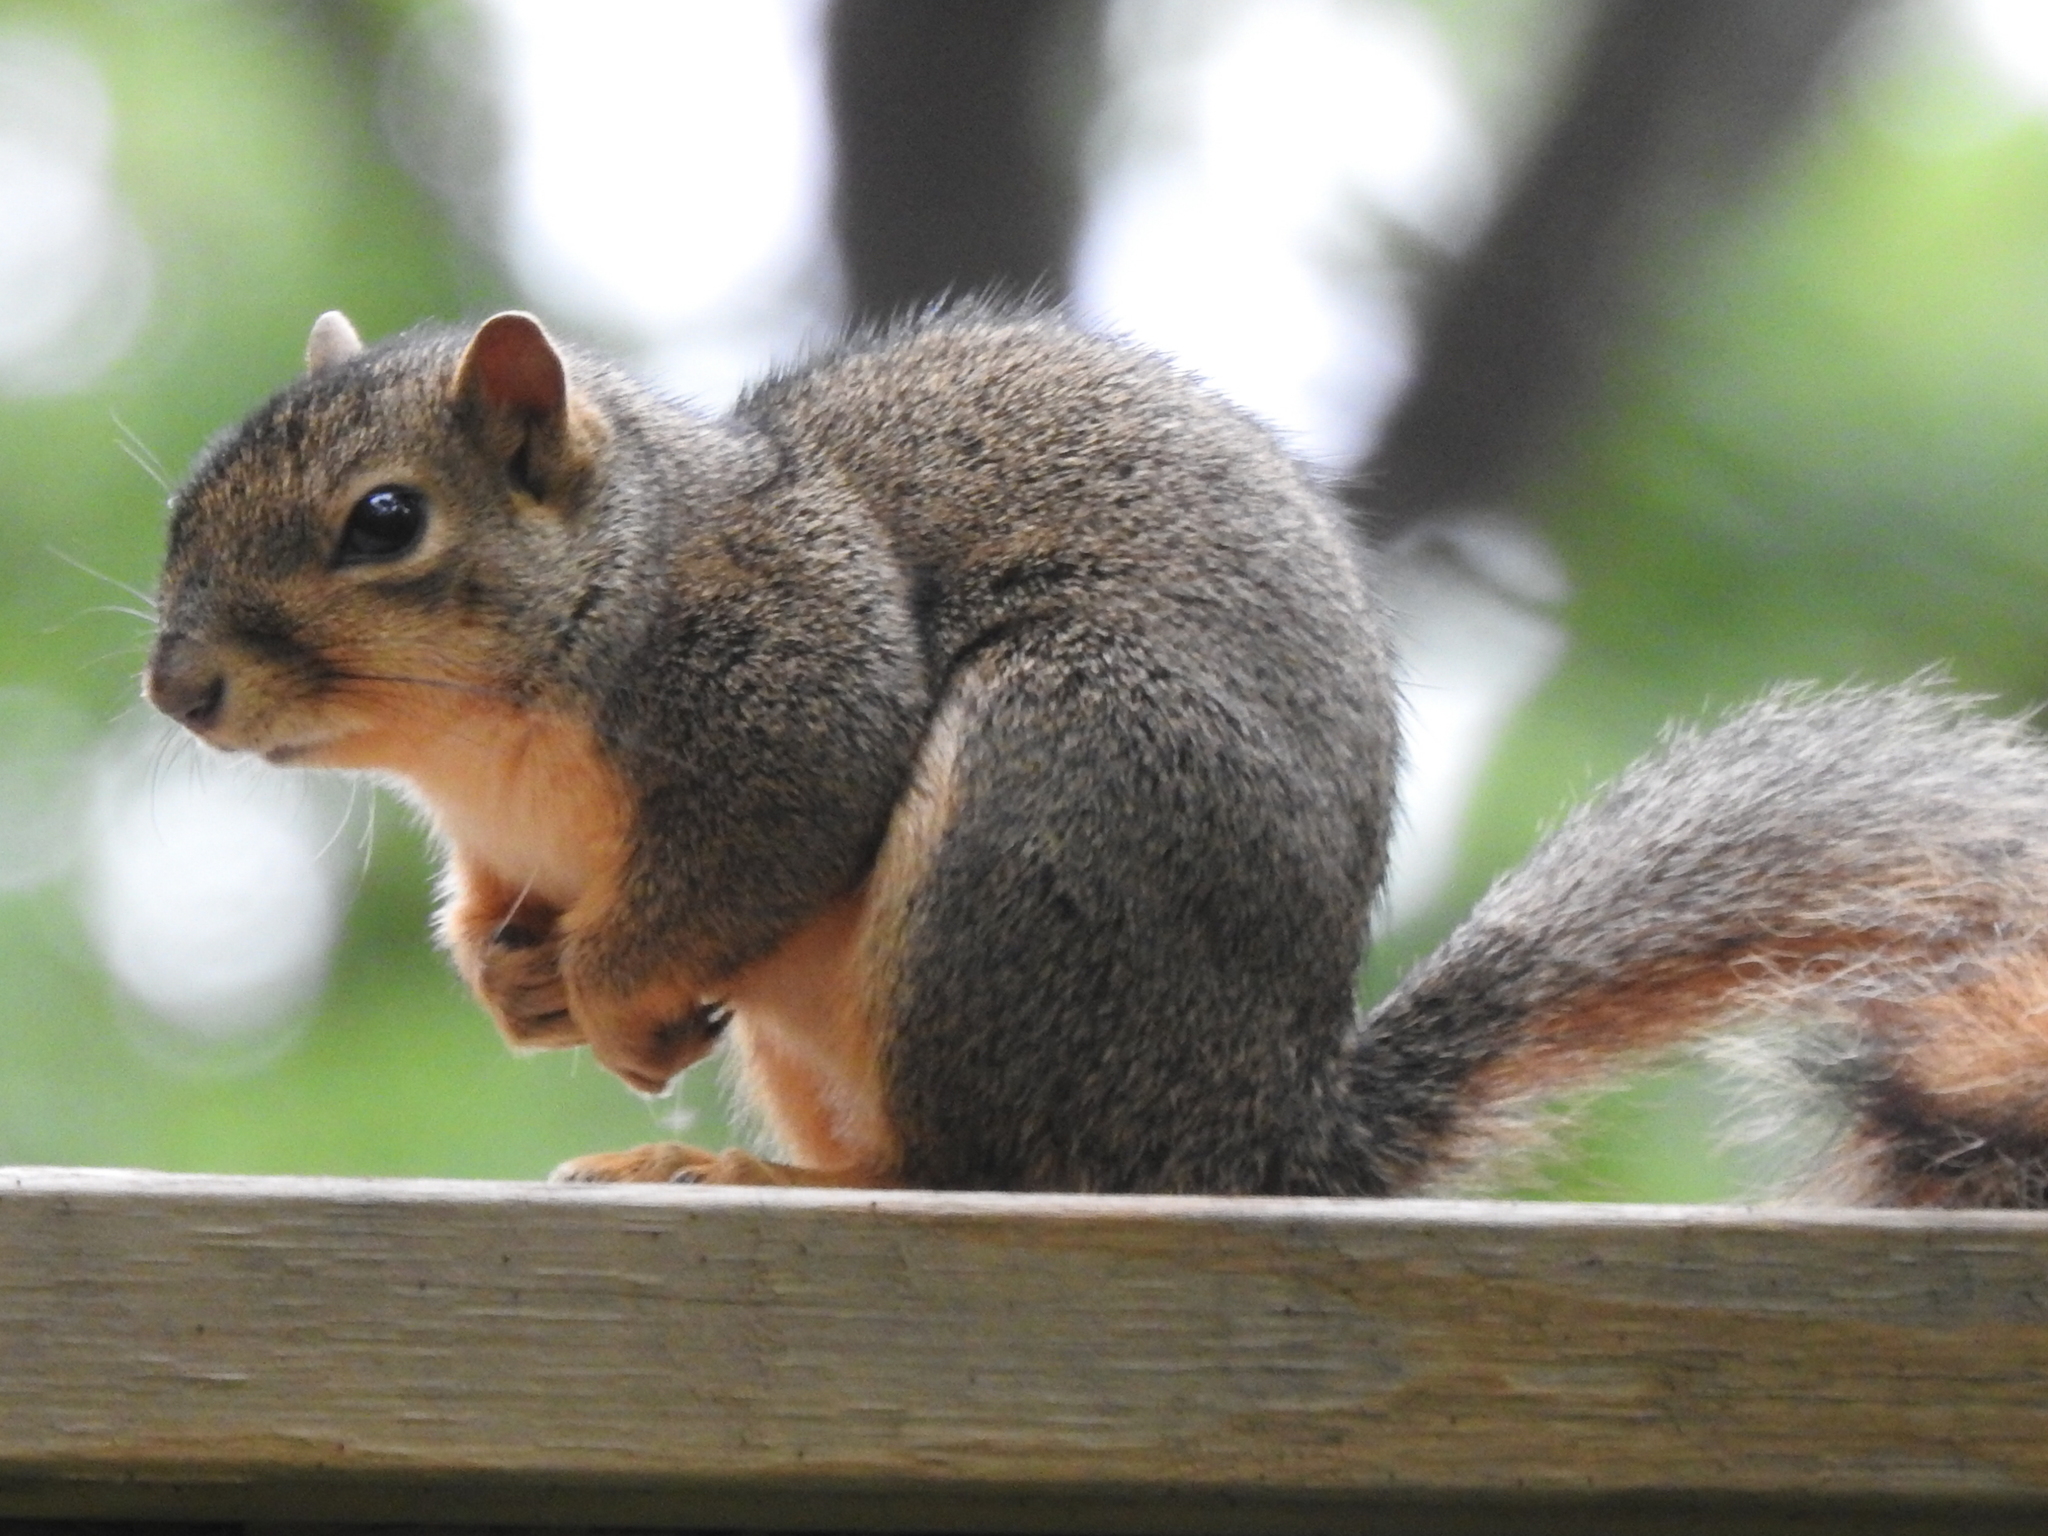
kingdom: Animalia
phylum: Chordata
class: Mammalia
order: Rodentia
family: Sciuridae
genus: Sciurus
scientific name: Sciurus niger
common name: Fox squirrel
